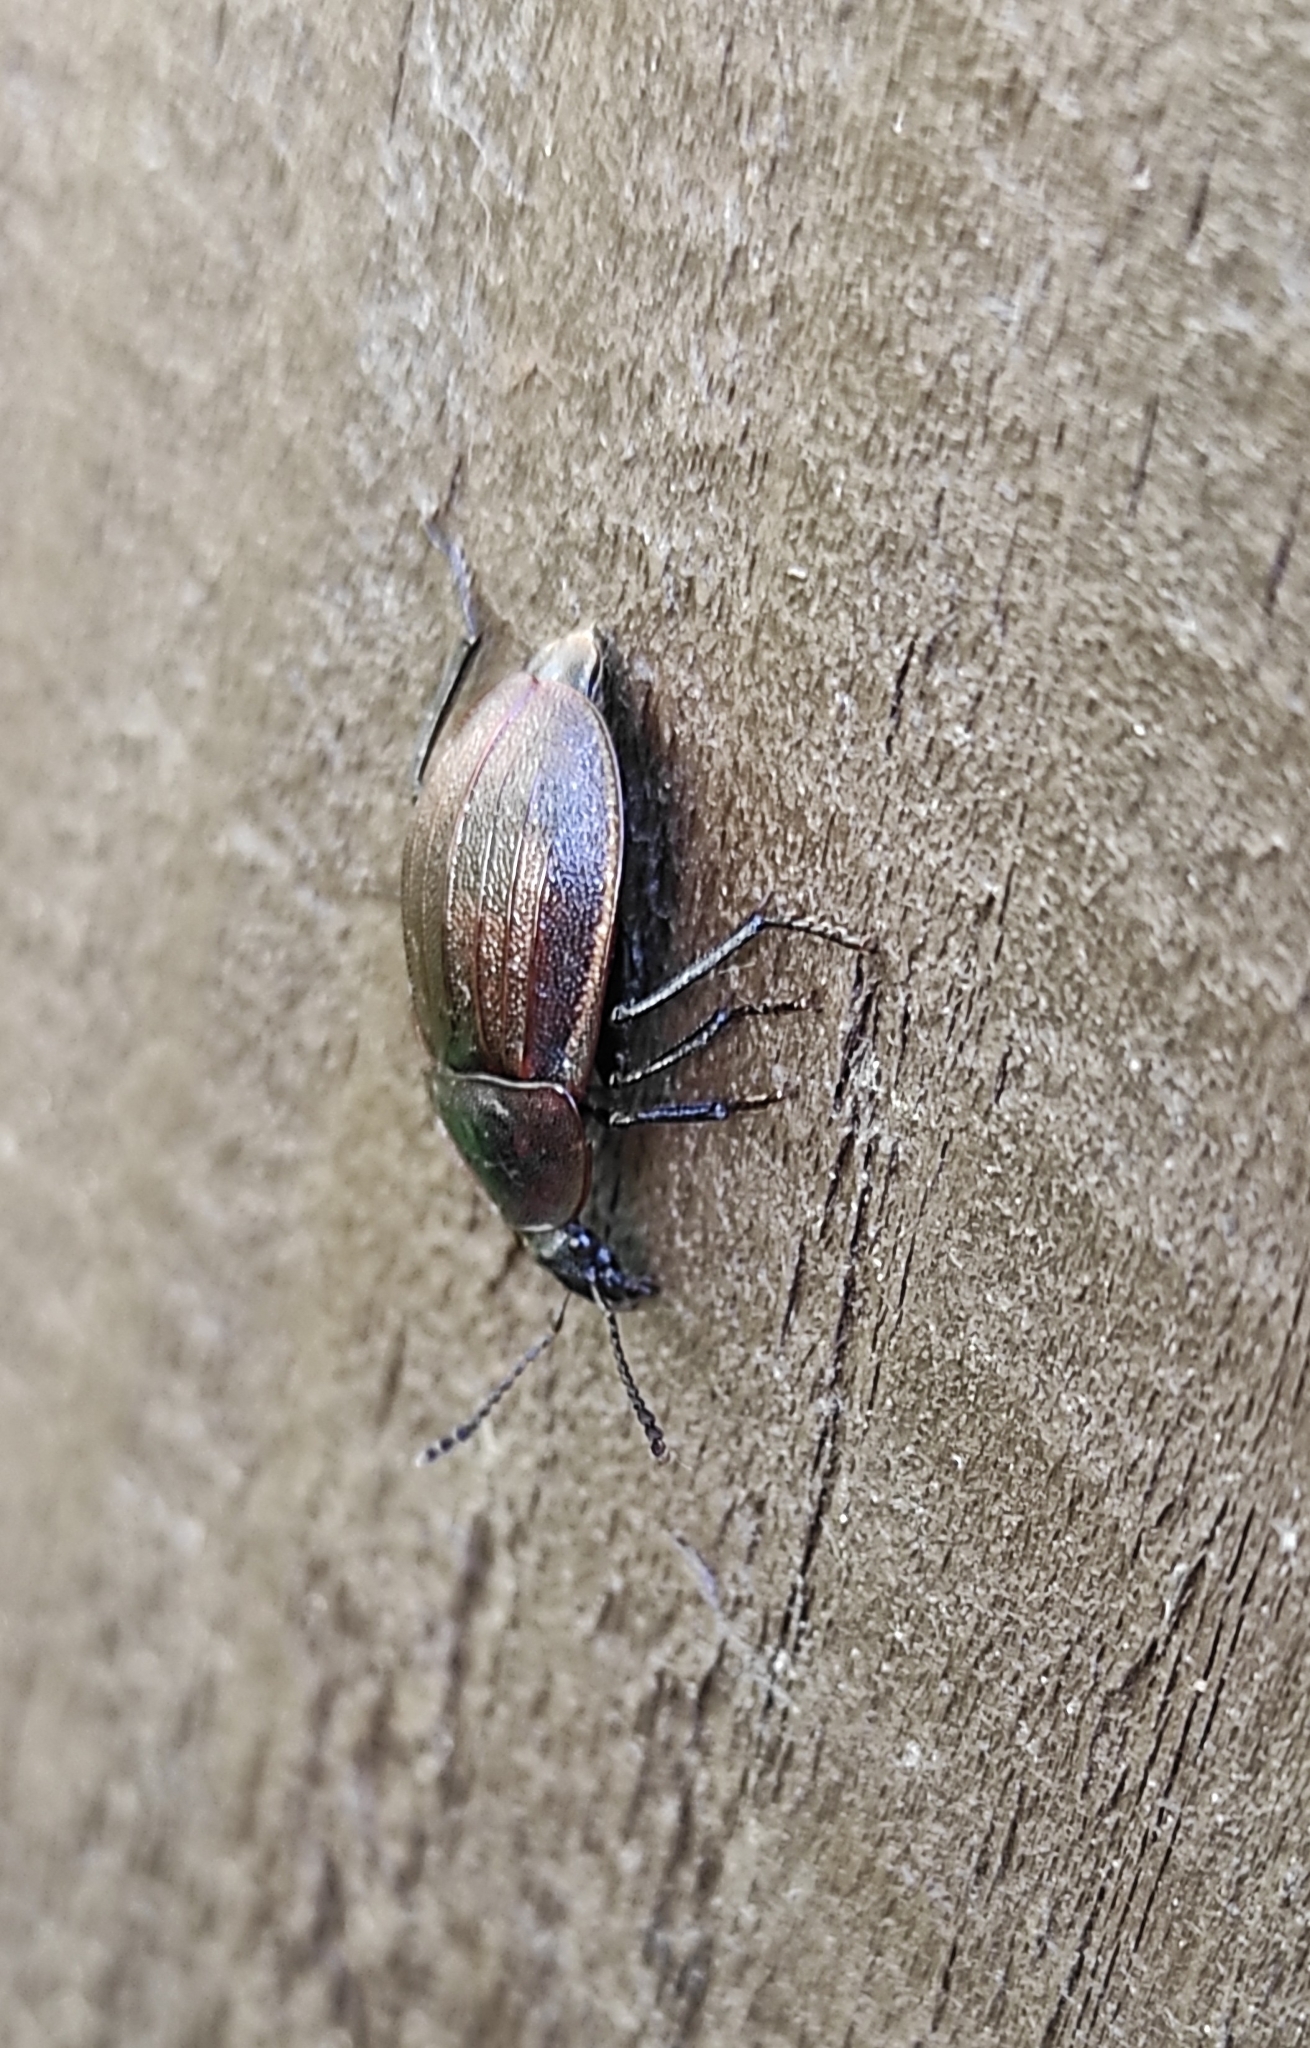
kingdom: Animalia
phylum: Arthropoda
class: Insecta
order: Coleoptera
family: Staphylinidae
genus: Silpha
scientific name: Silpha atrata
